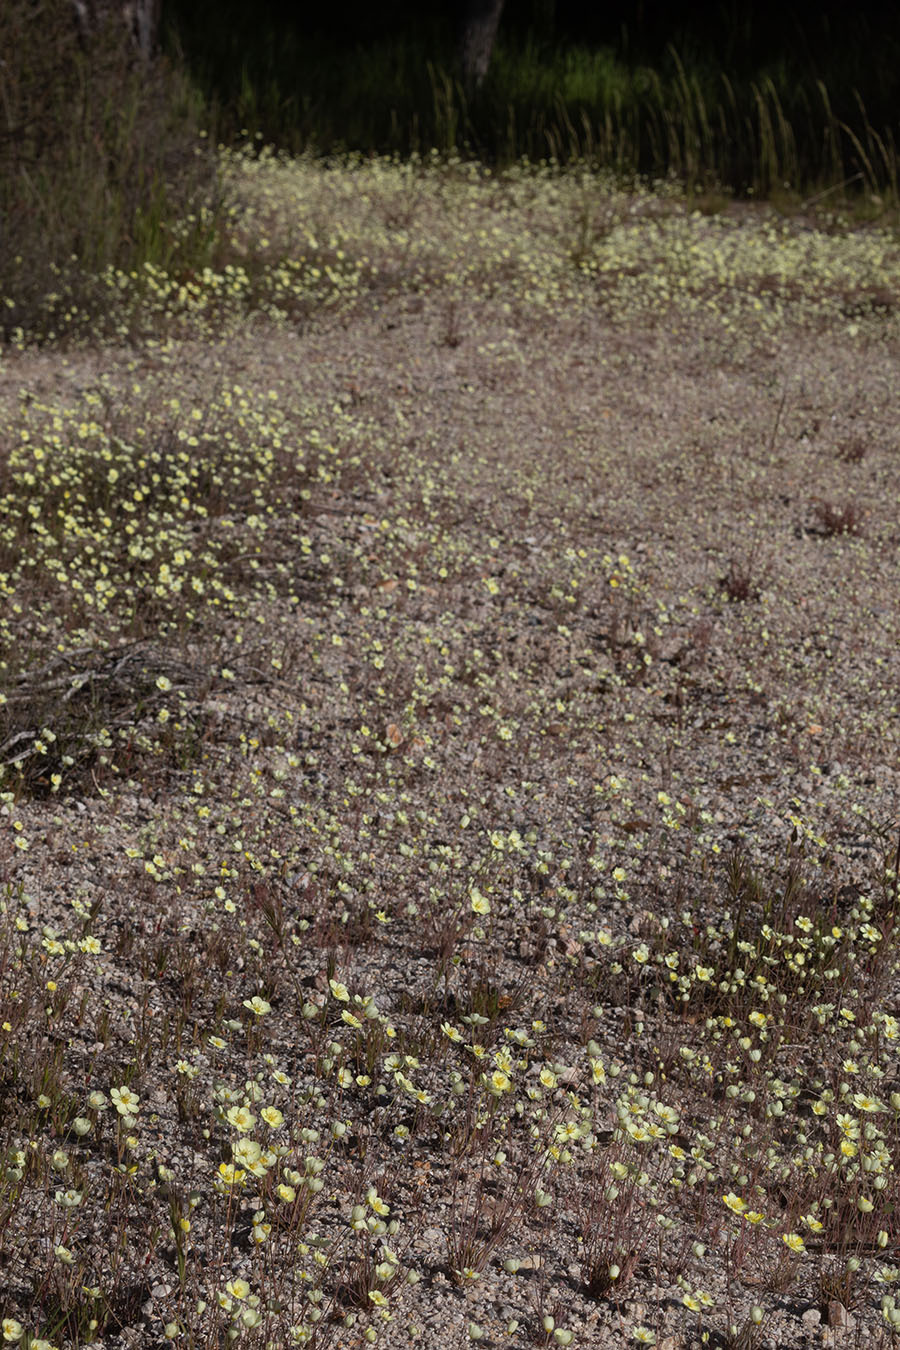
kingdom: Plantae
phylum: Tracheophyta
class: Magnoliopsida
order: Ranunculales
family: Papaveraceae
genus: Platystigma
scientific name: Platystigma lineare
